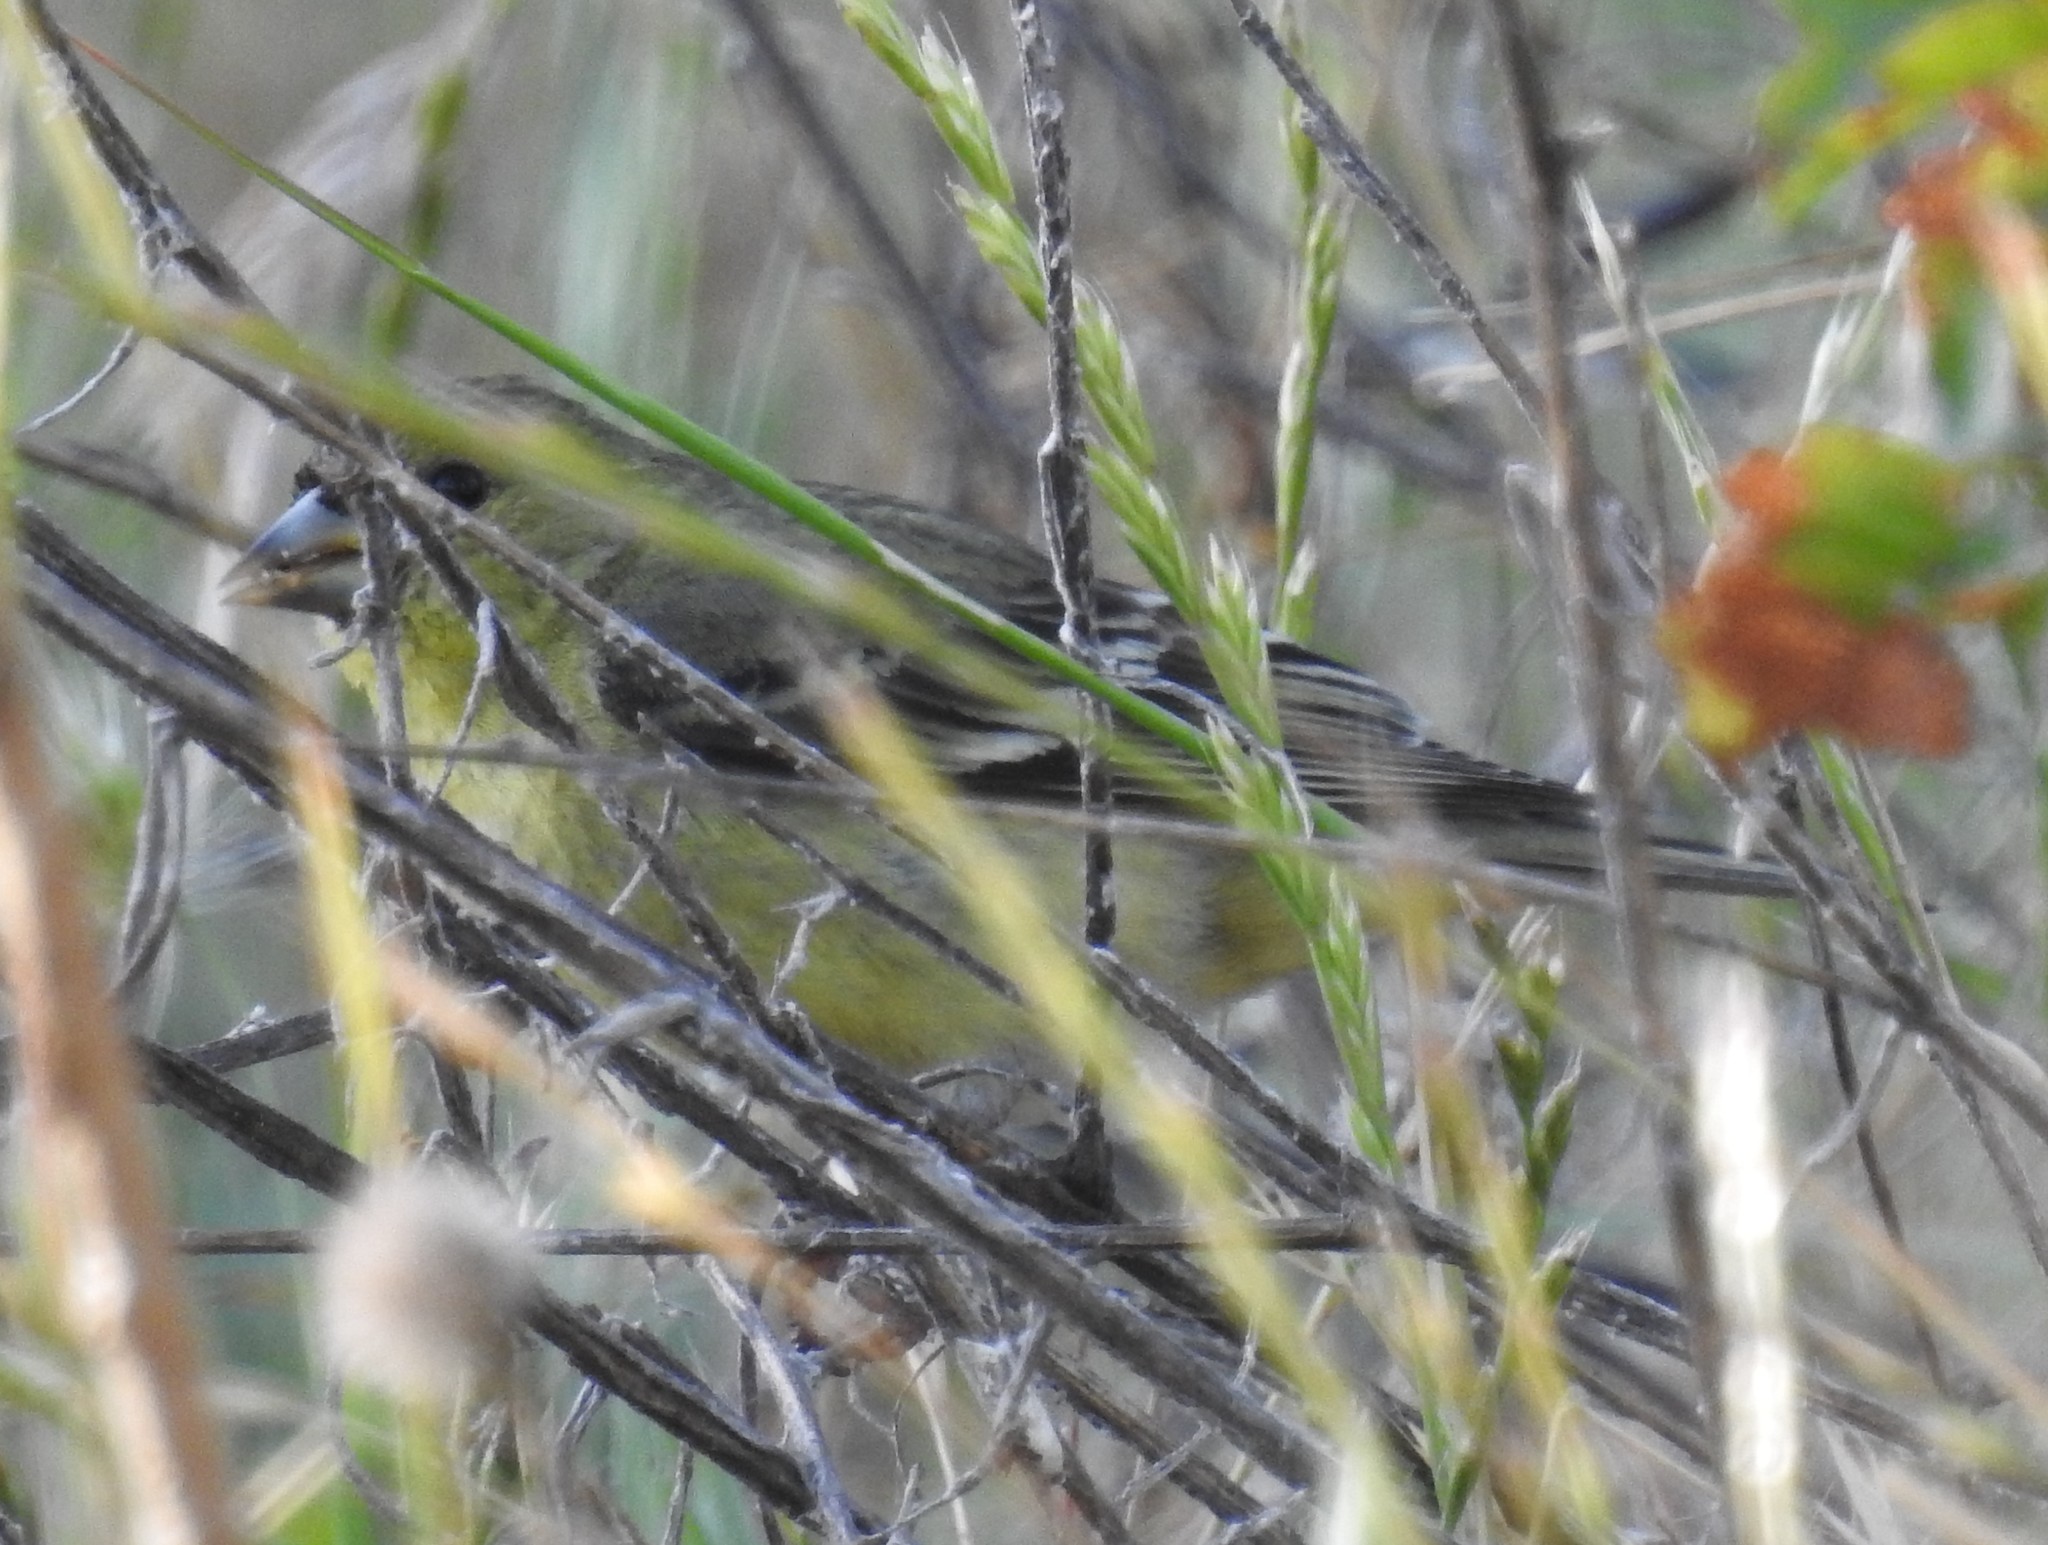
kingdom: Animalia
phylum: Chordata
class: Aves
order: Passeriformes
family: Fringillidae
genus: Spinus
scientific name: Spinus psaltria
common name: Lesser goldfinch
